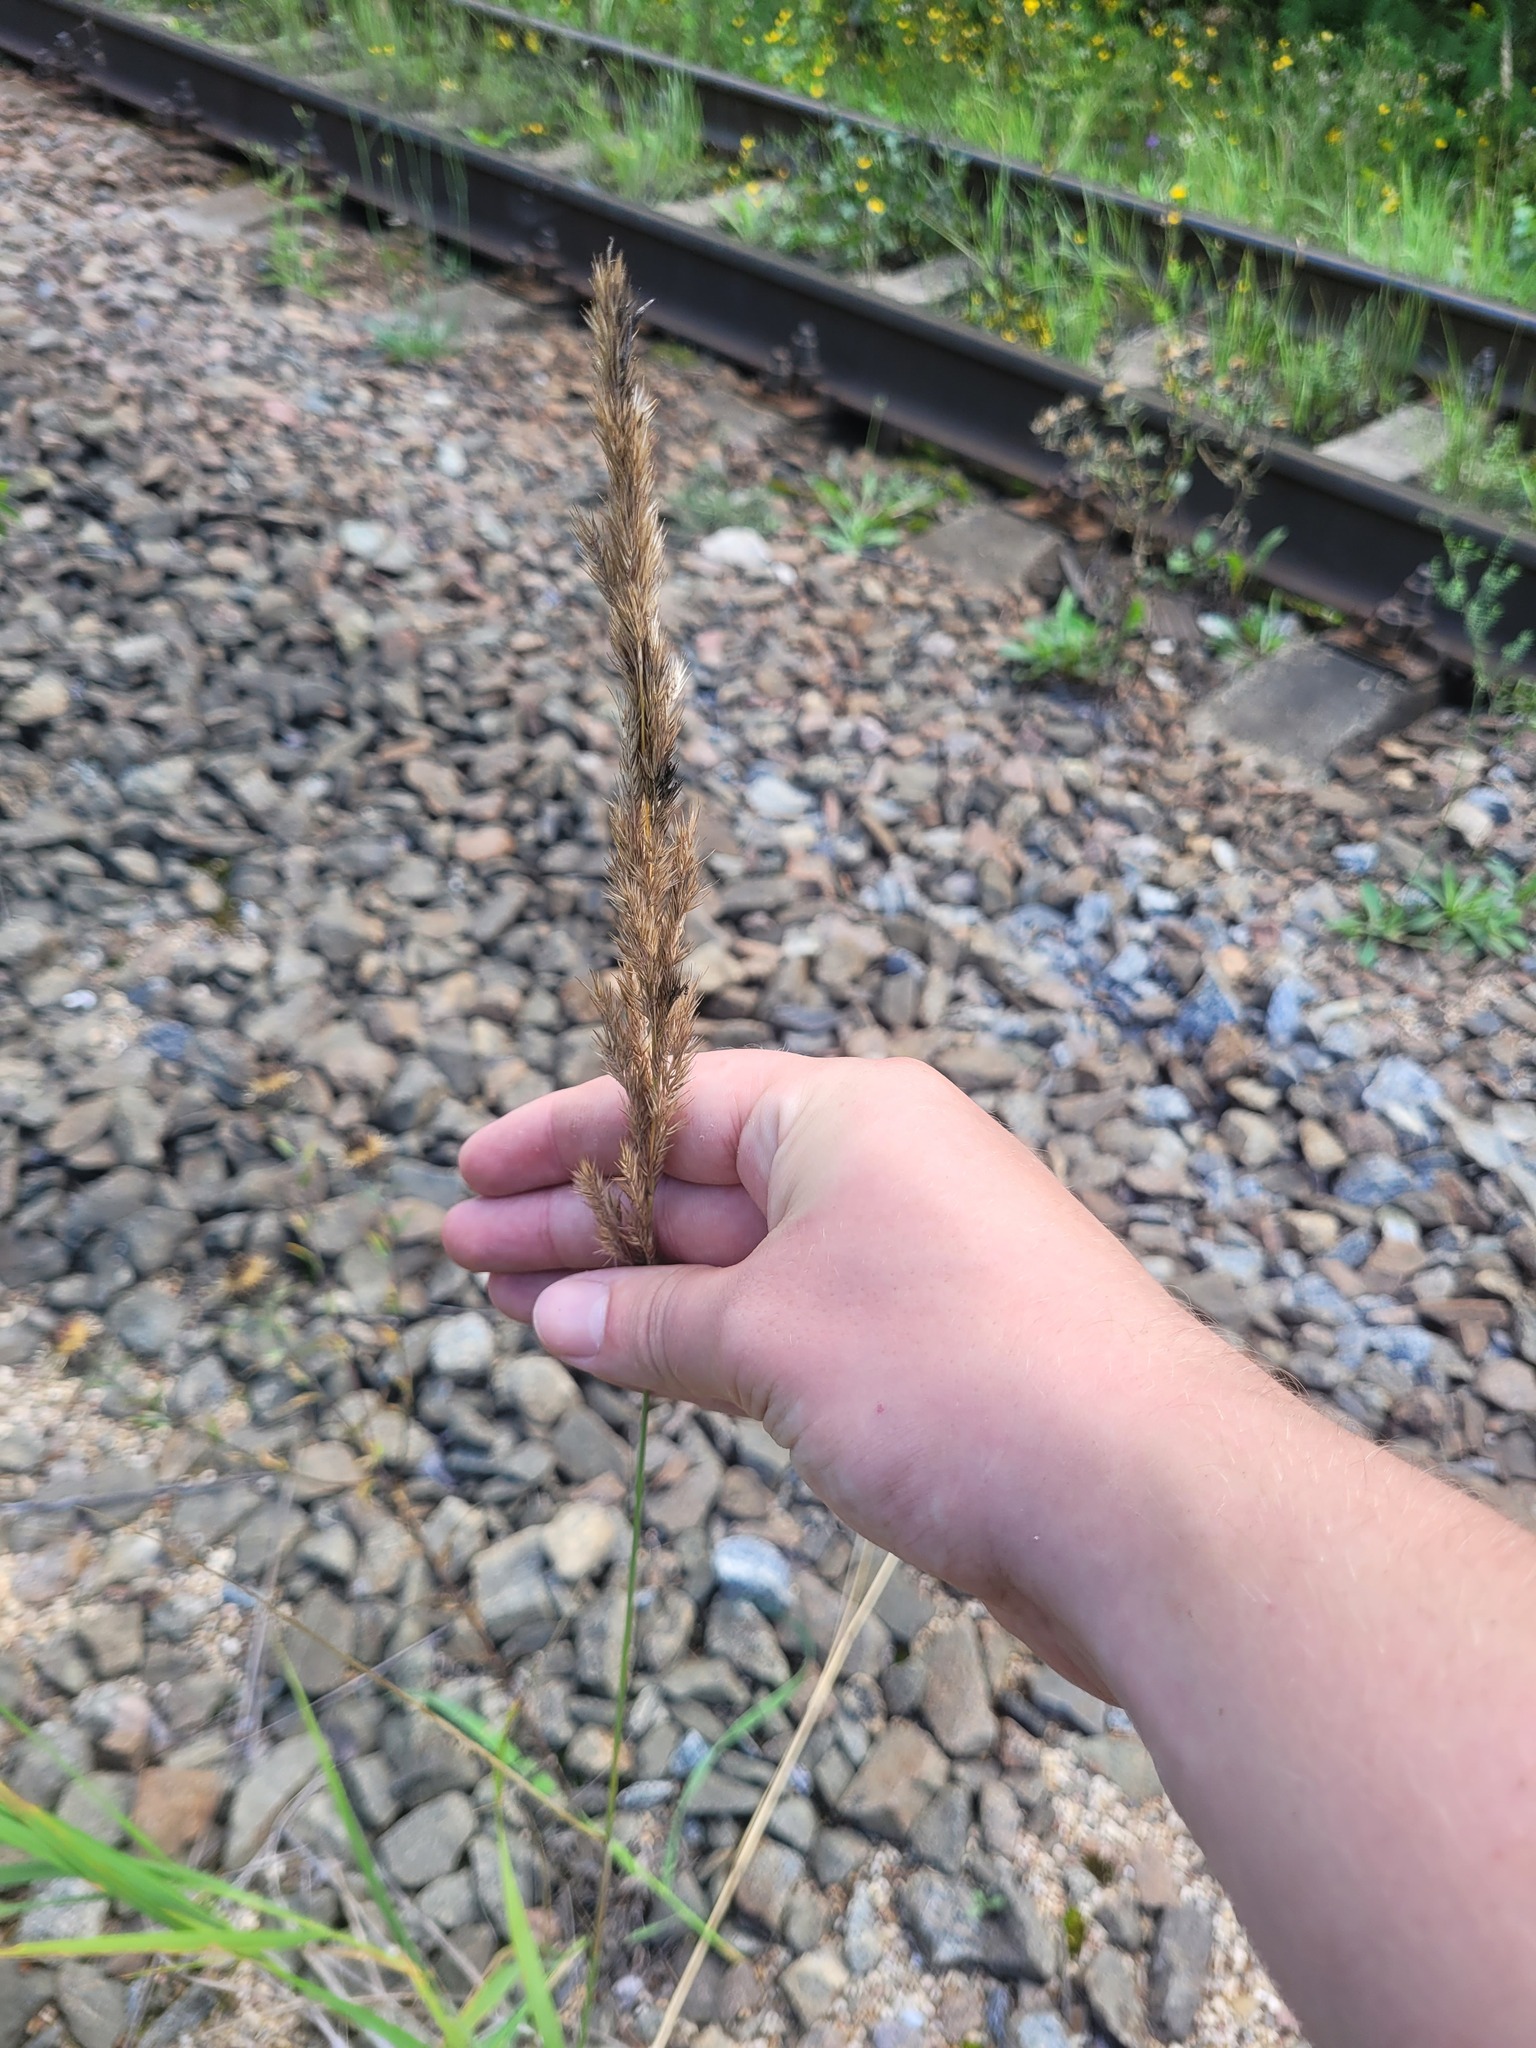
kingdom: Plantae
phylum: Tracheophyta
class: Liliopsida
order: Poales
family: Poaceae
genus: Calamagrostis
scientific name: Calamagrostis epigejos
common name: Wood small-reed
